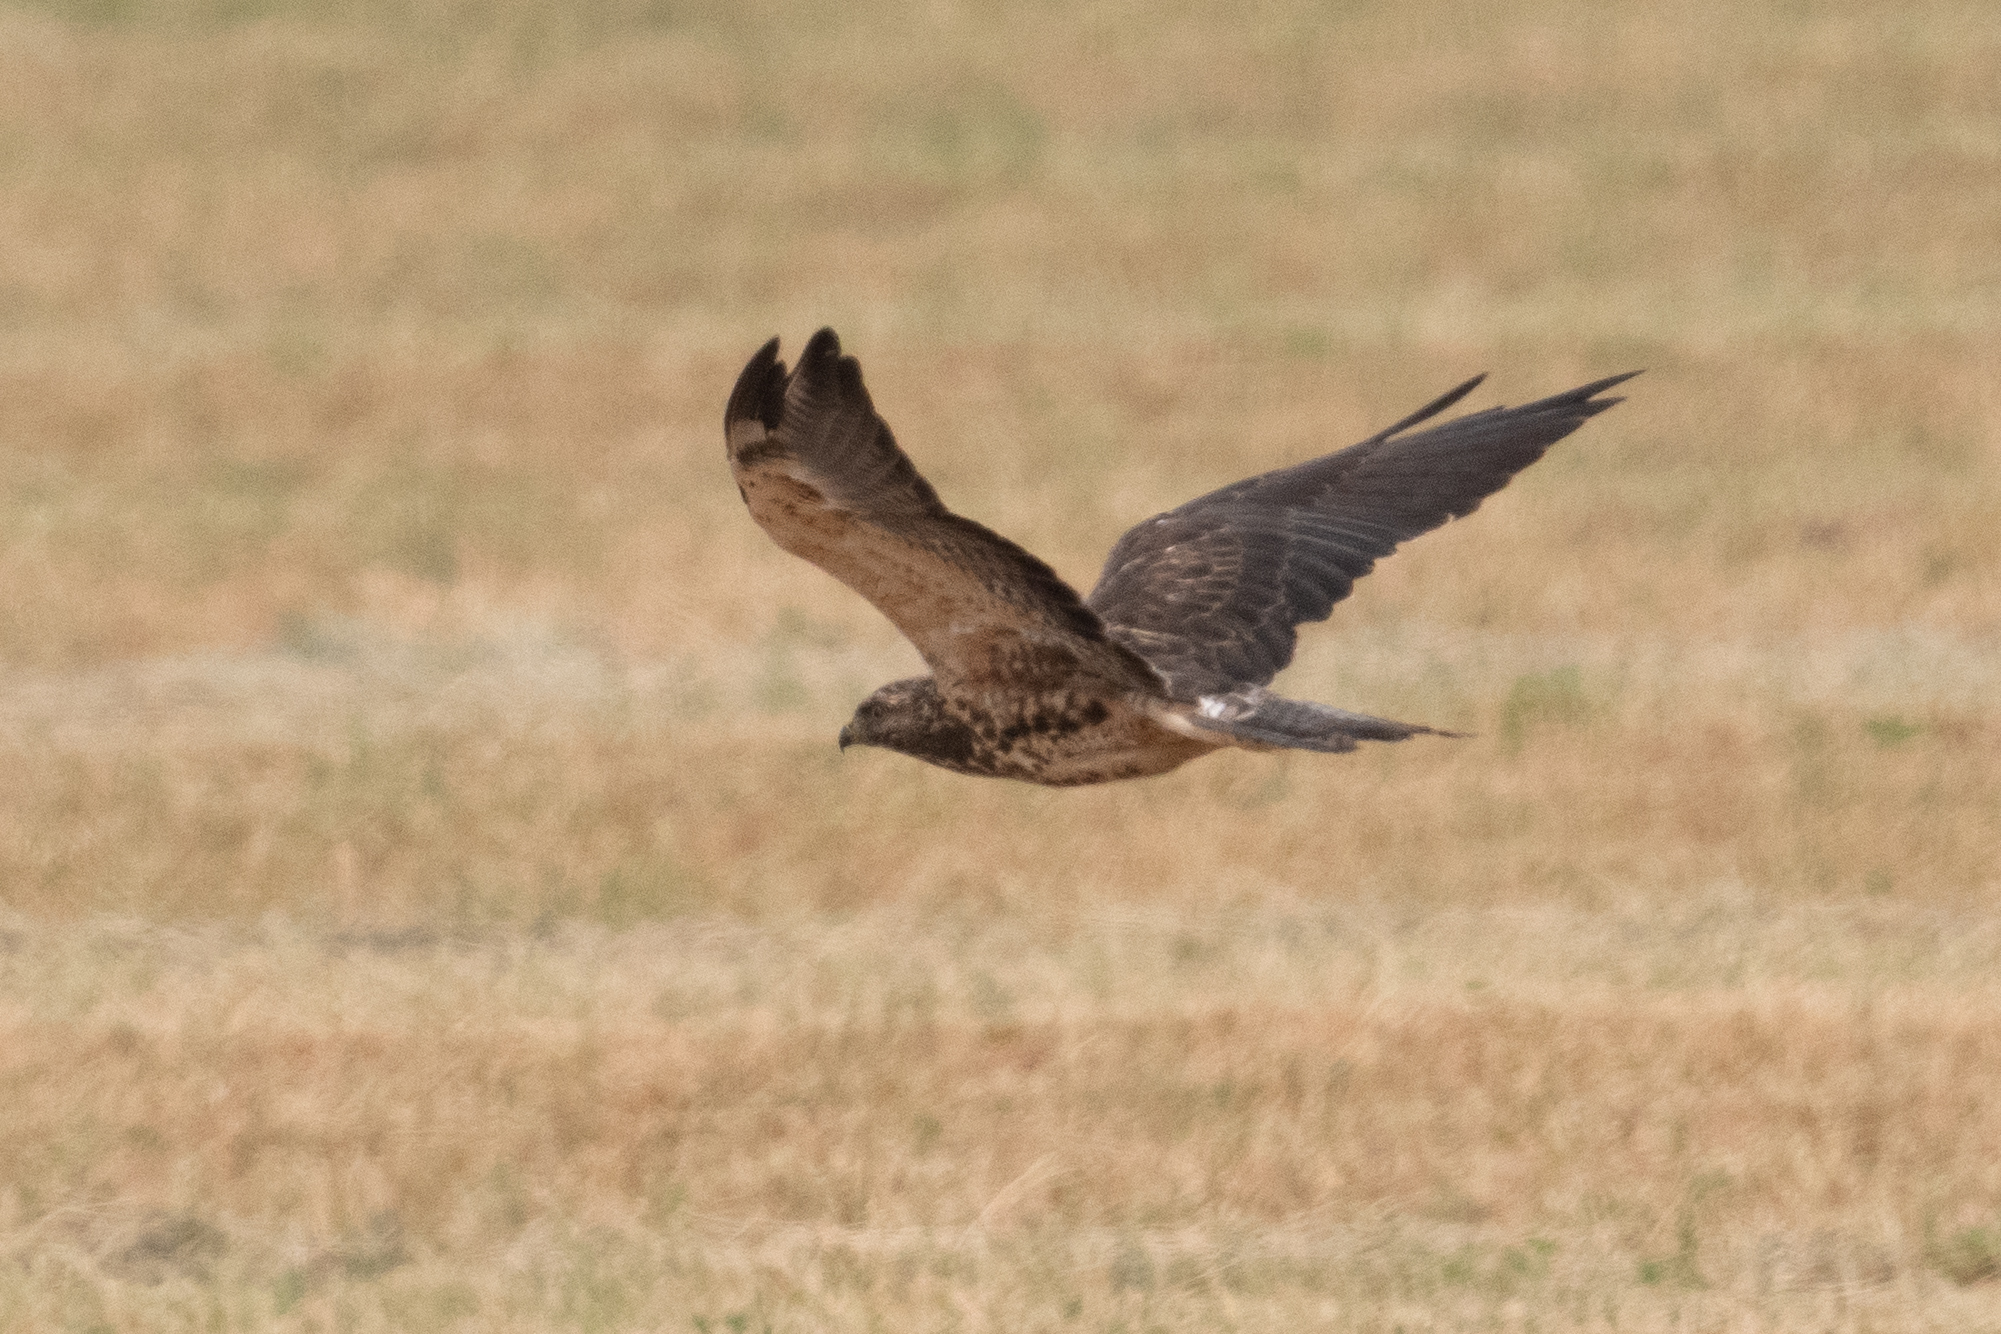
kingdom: Animalia
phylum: Chordata
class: Aves
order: Accipitriformes
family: Accipitridae
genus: Buteo
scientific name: Buteo swainsoni
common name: Swainson's hawk
